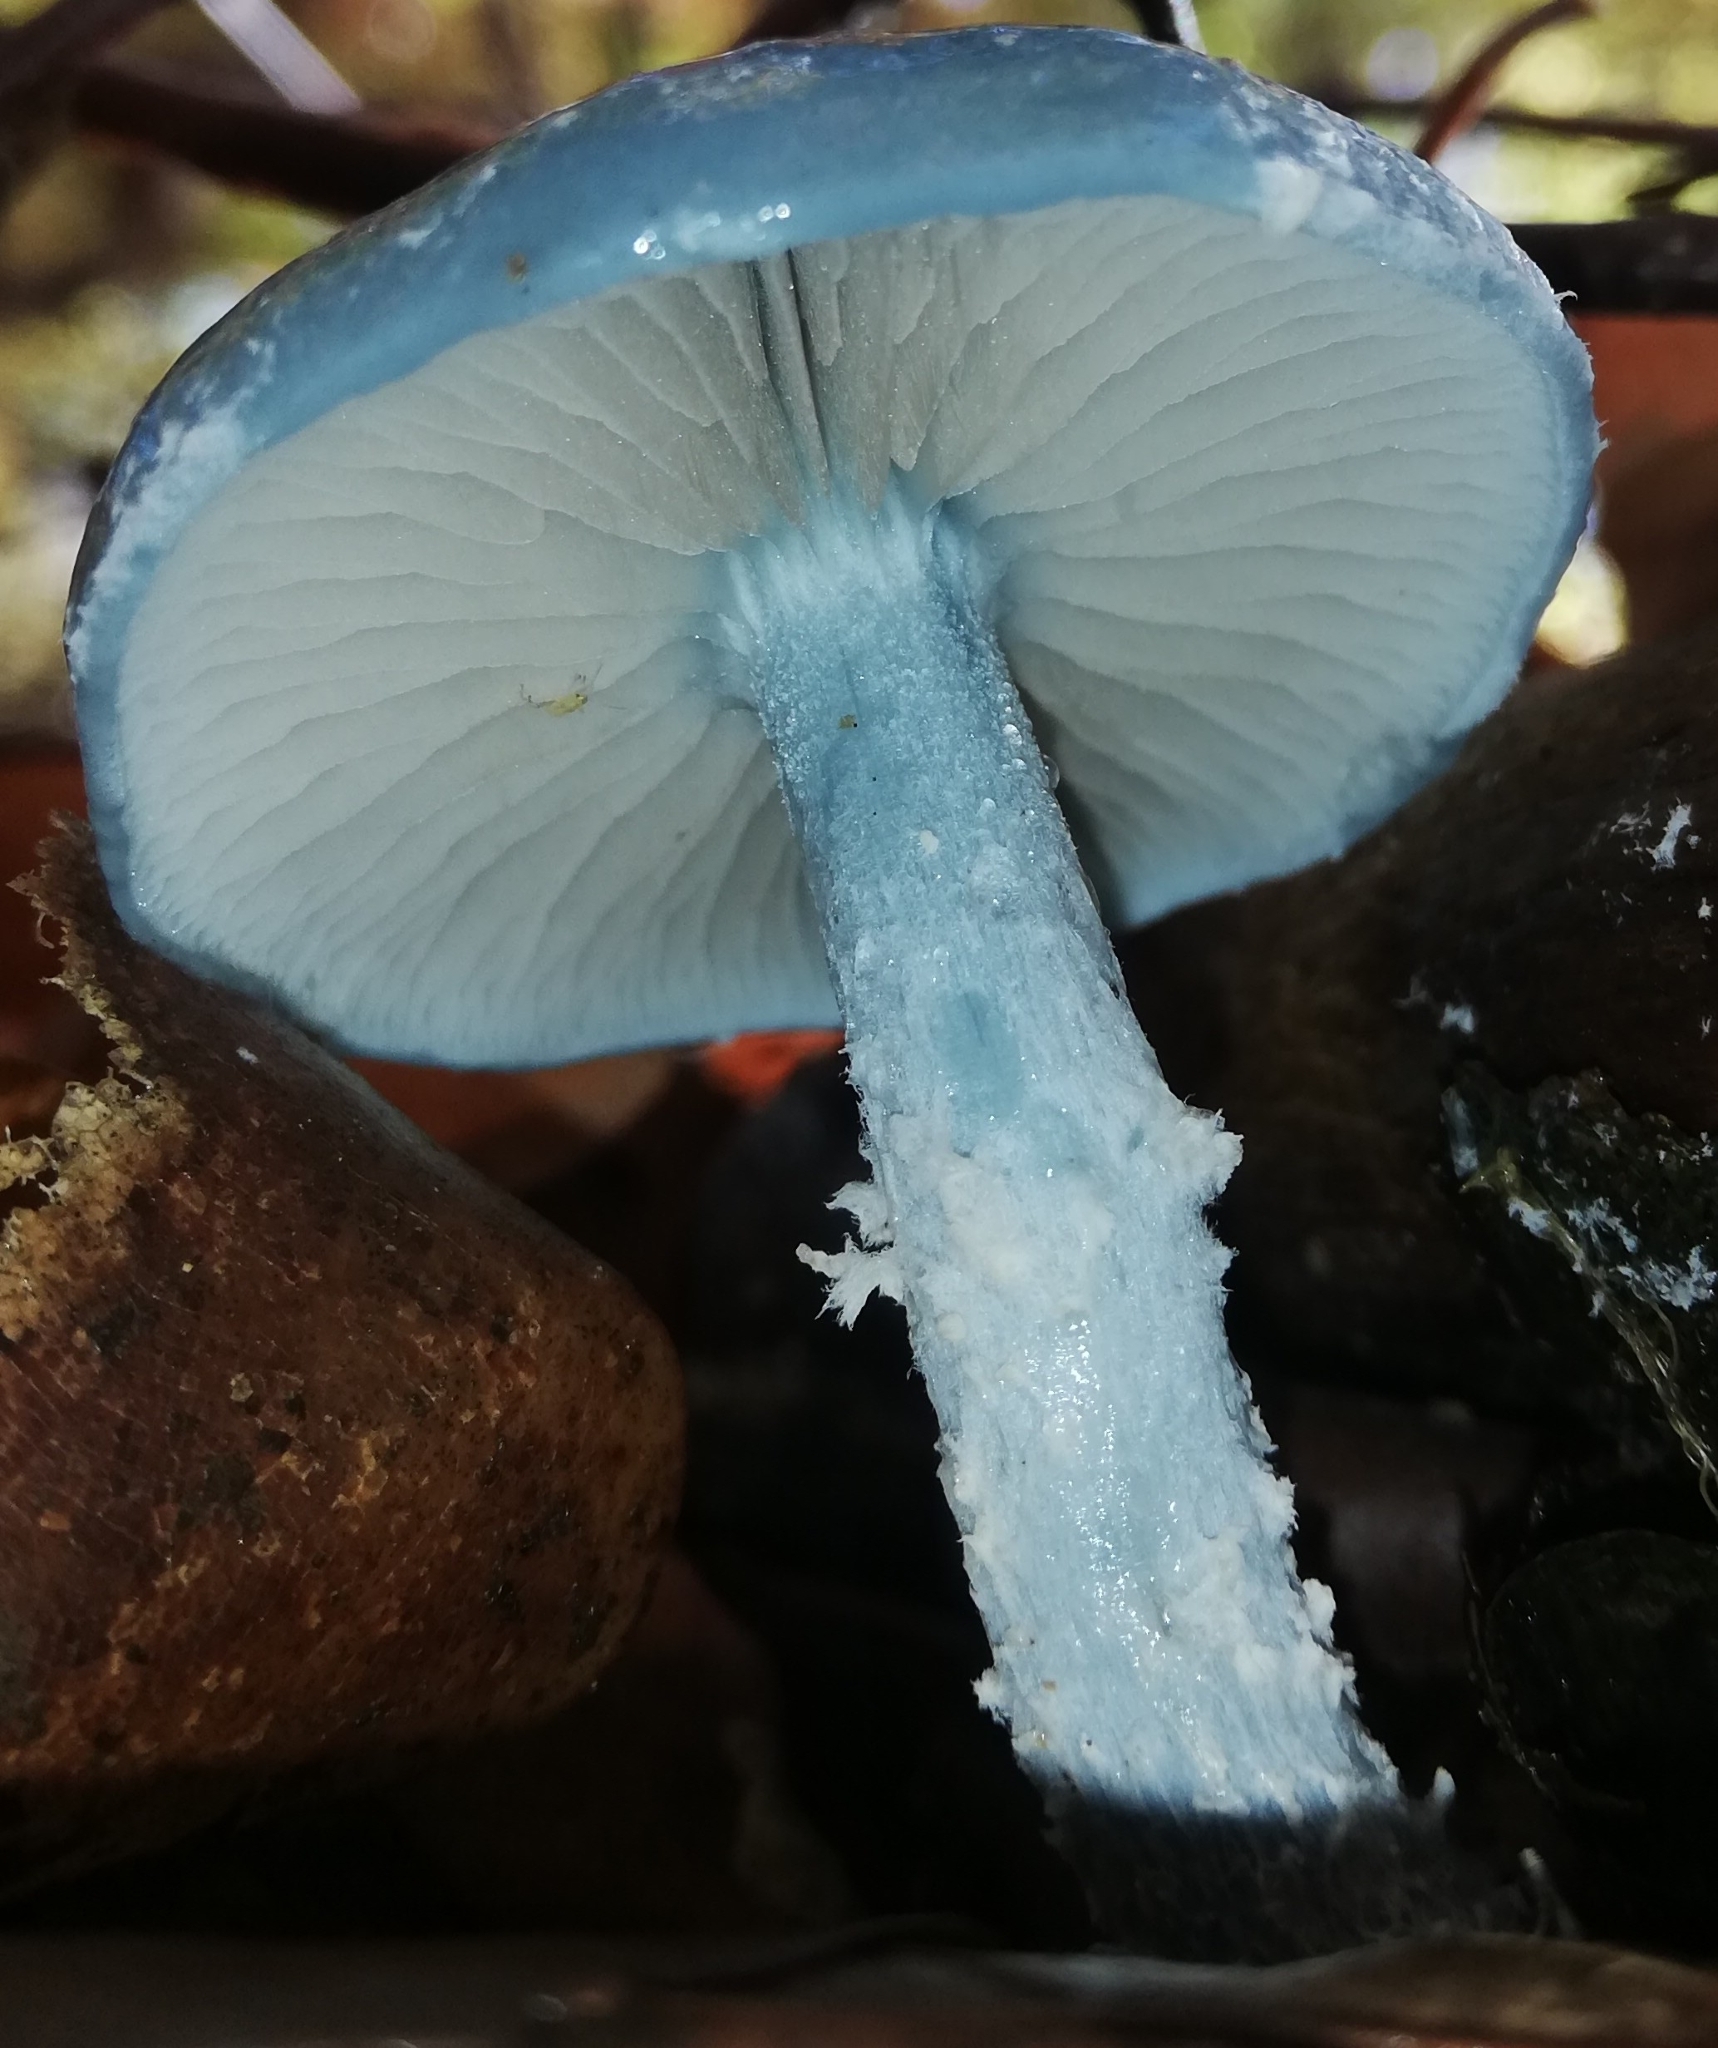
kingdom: Fungi
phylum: Basidiomycota
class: Agaricomycetes
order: Agaricales
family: Strophariaceae
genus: Stropharia
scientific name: Stropharia caerulea
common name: Blue roundhead
